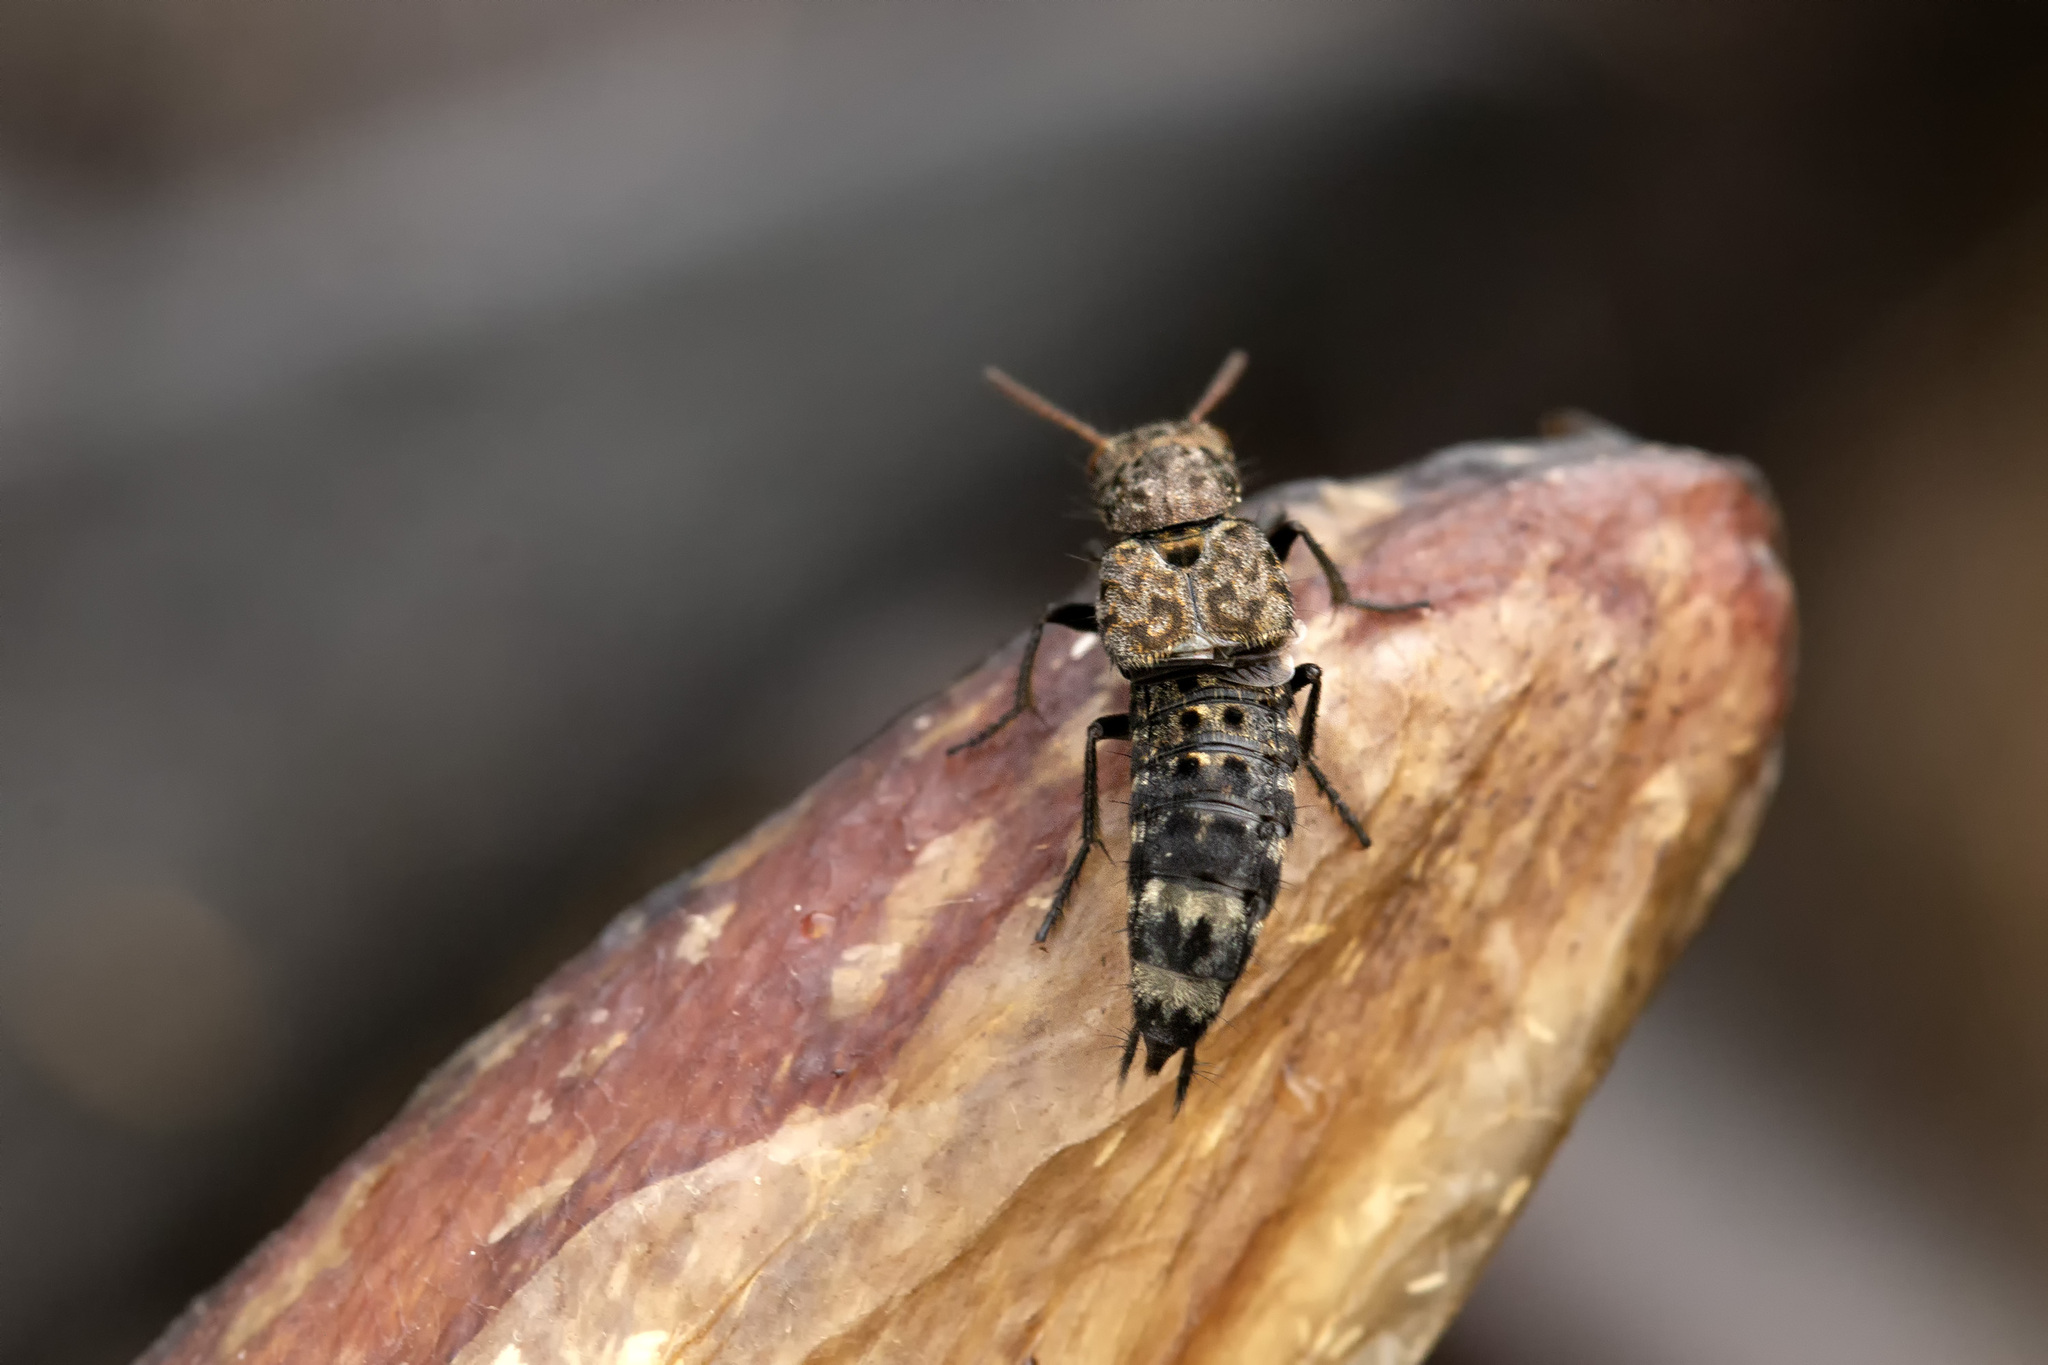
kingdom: Animalia
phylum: Arthropoda
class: Insecta
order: Coleoptera
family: Staphylinidae
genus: Ontholestes
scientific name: Ontholestes murinus
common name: Staph beetle
